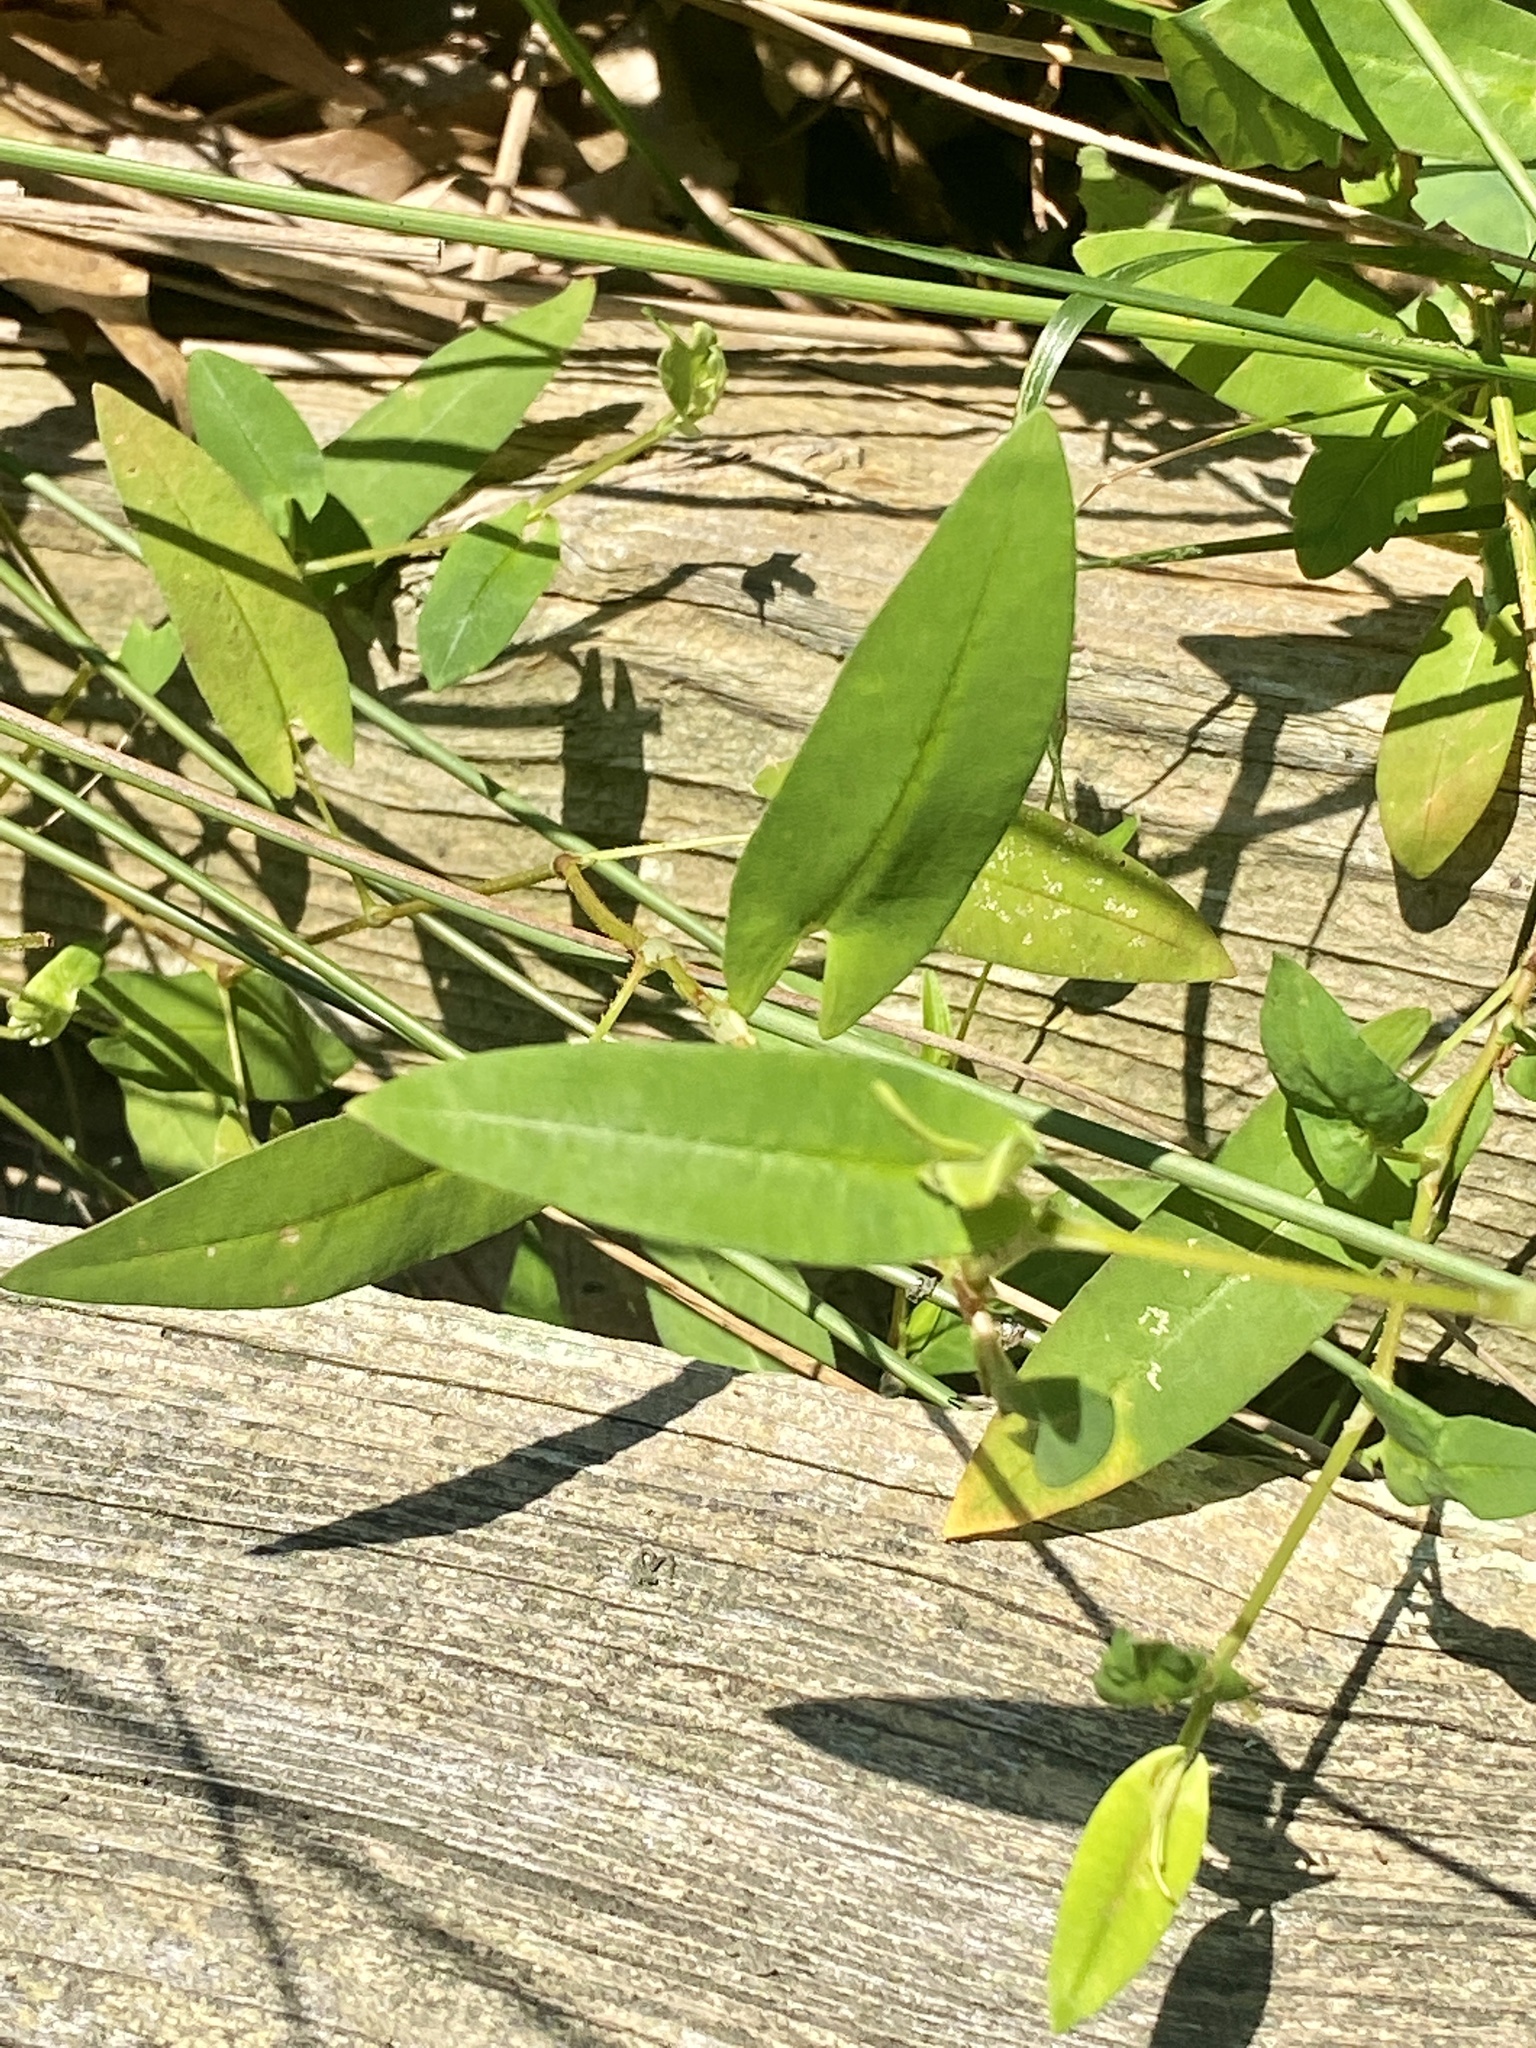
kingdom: Plantae
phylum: Tracheophyta
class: Magnoliopsida
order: Caryophyllales
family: Polygonaceae
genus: Persicaria
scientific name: Persicaria sagittata
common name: American tearthumb
